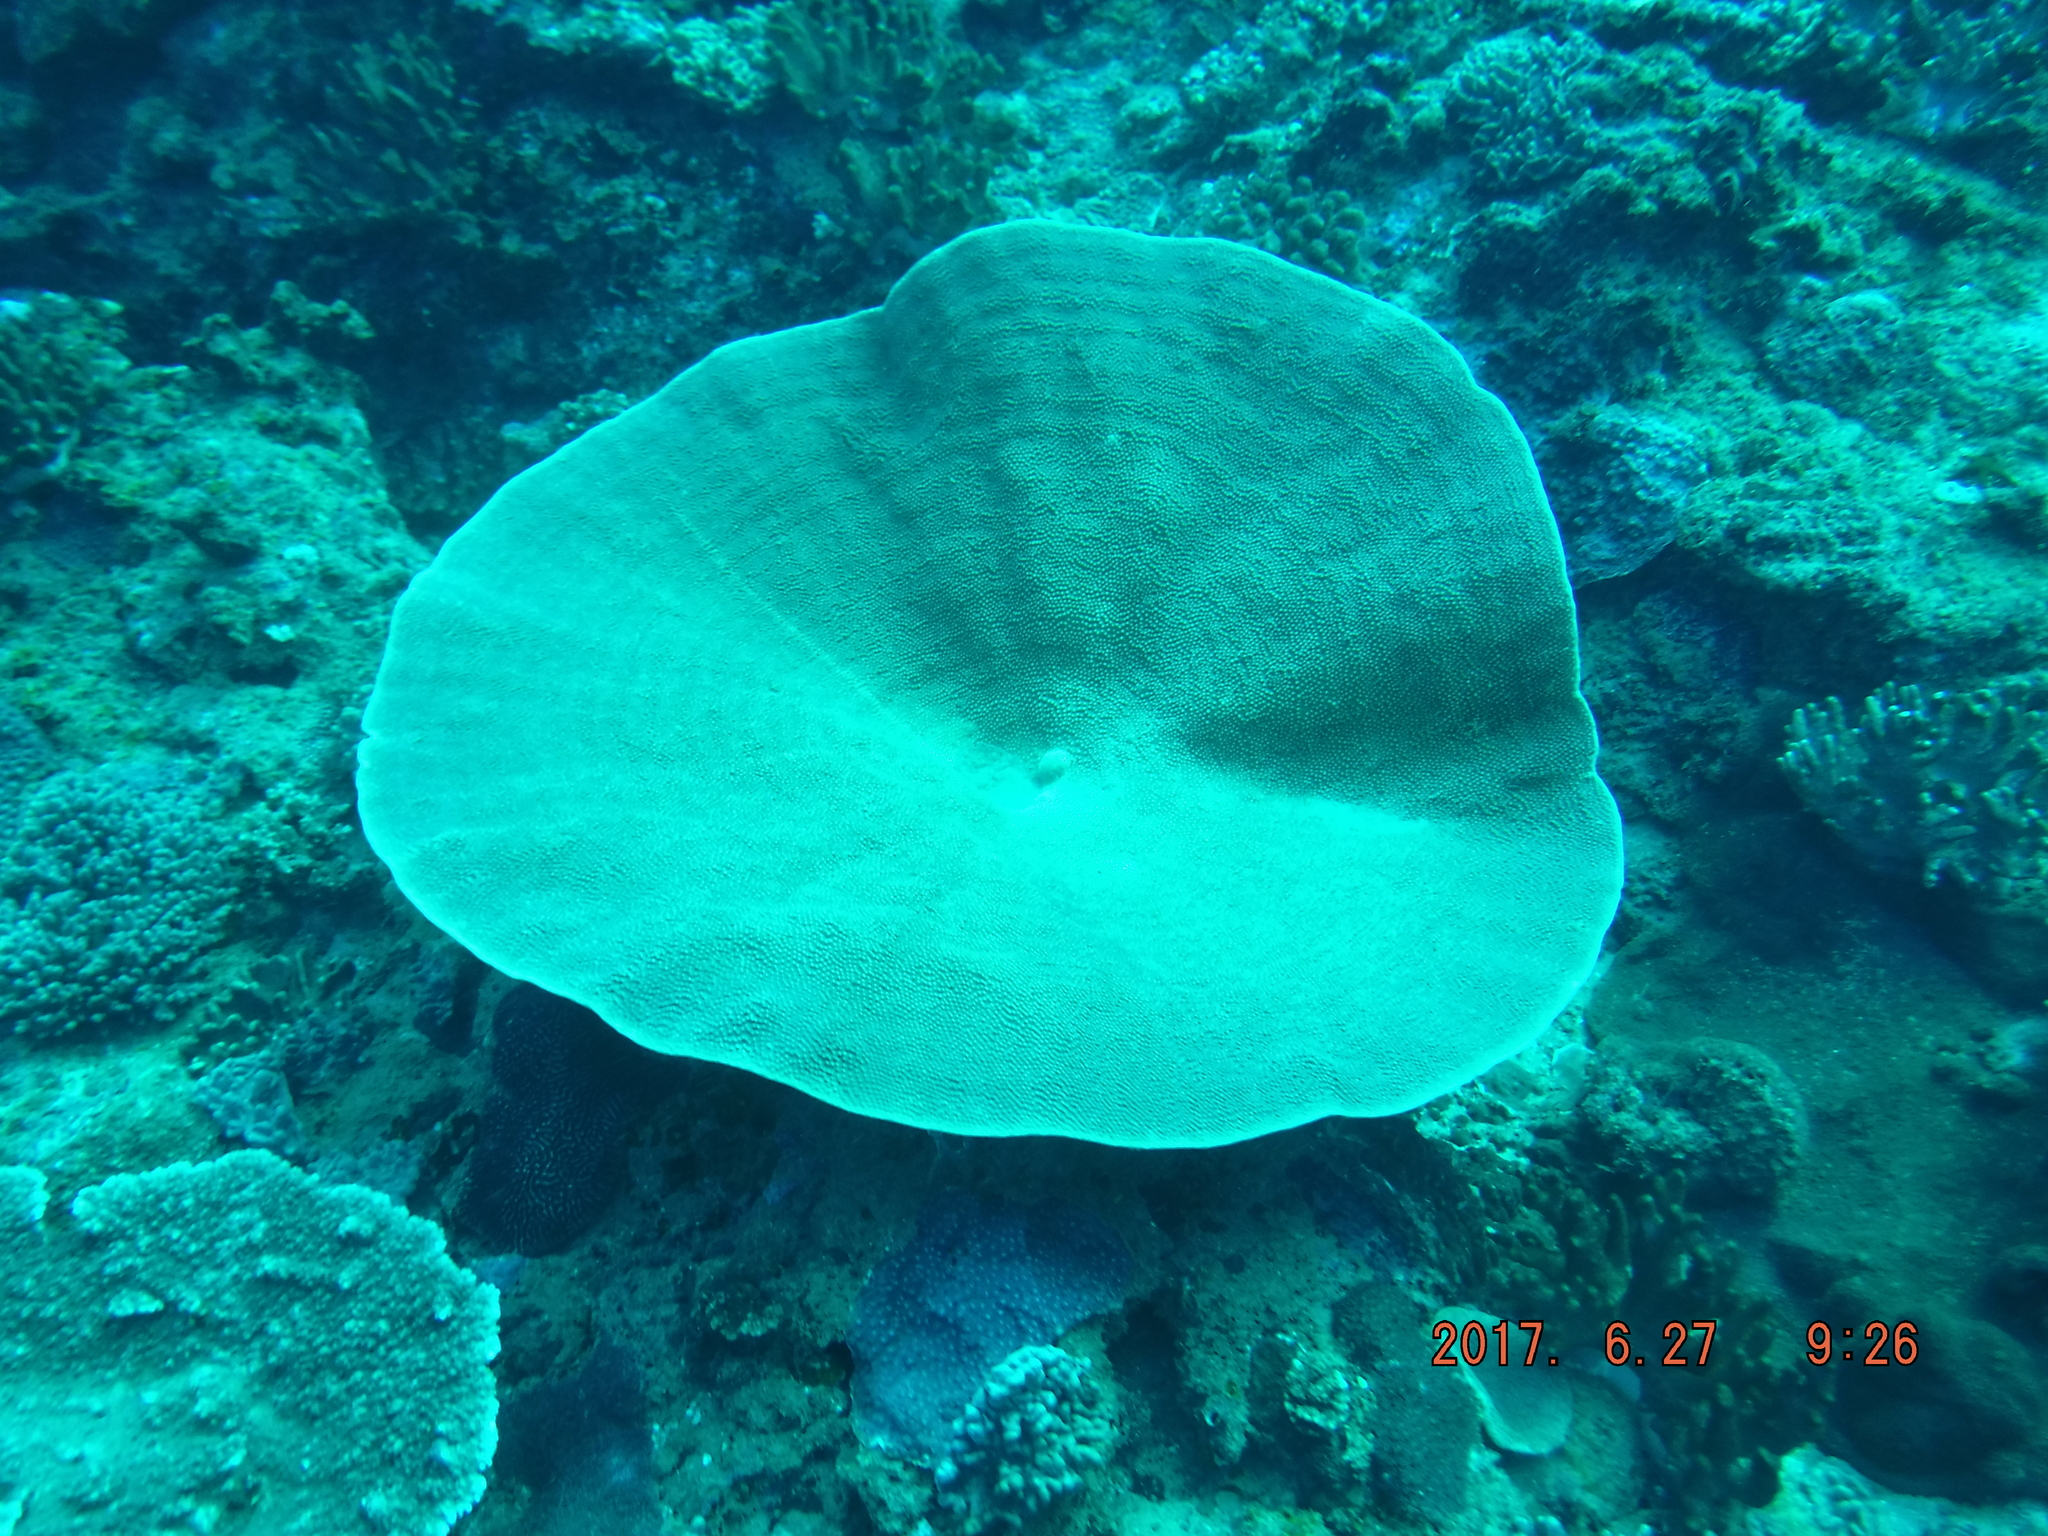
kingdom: Animalia
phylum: Cnidaria
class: Anthozoa
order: Scleractinia
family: Dendrophylliidae
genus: Turbinaria
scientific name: Turbinaria mesenterina
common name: Disc coral
